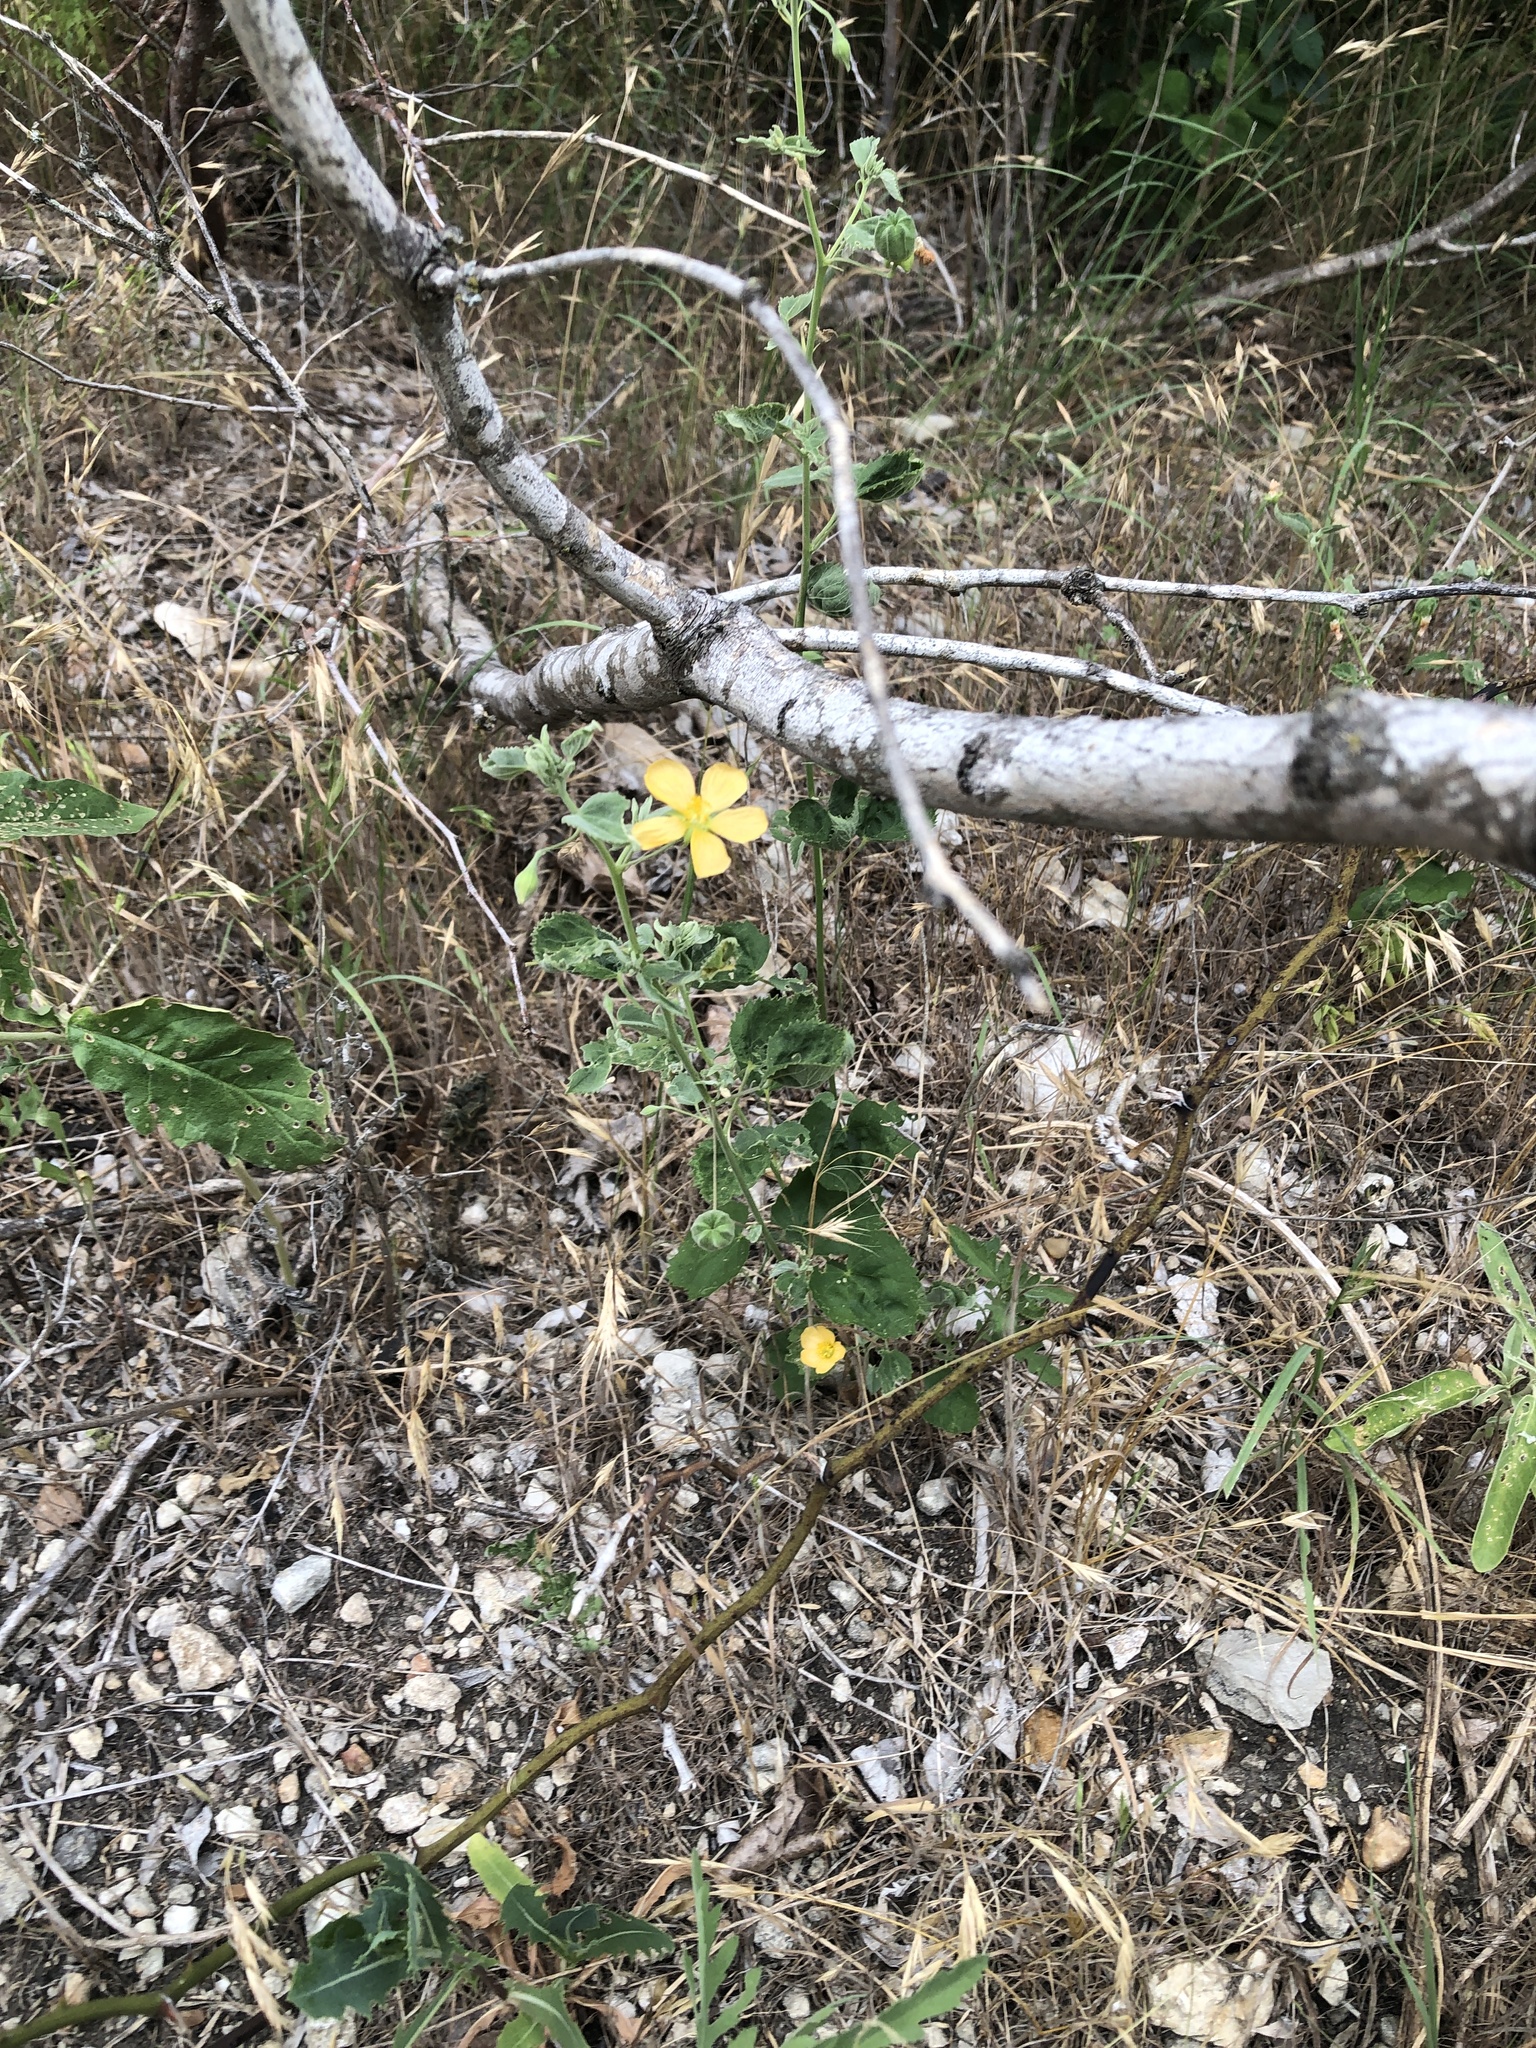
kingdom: Plantae
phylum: Tracheophyta
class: Magnoliopsida
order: Malvales
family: Malvaceae
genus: Abutilon
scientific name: Abutilon fruticosum
